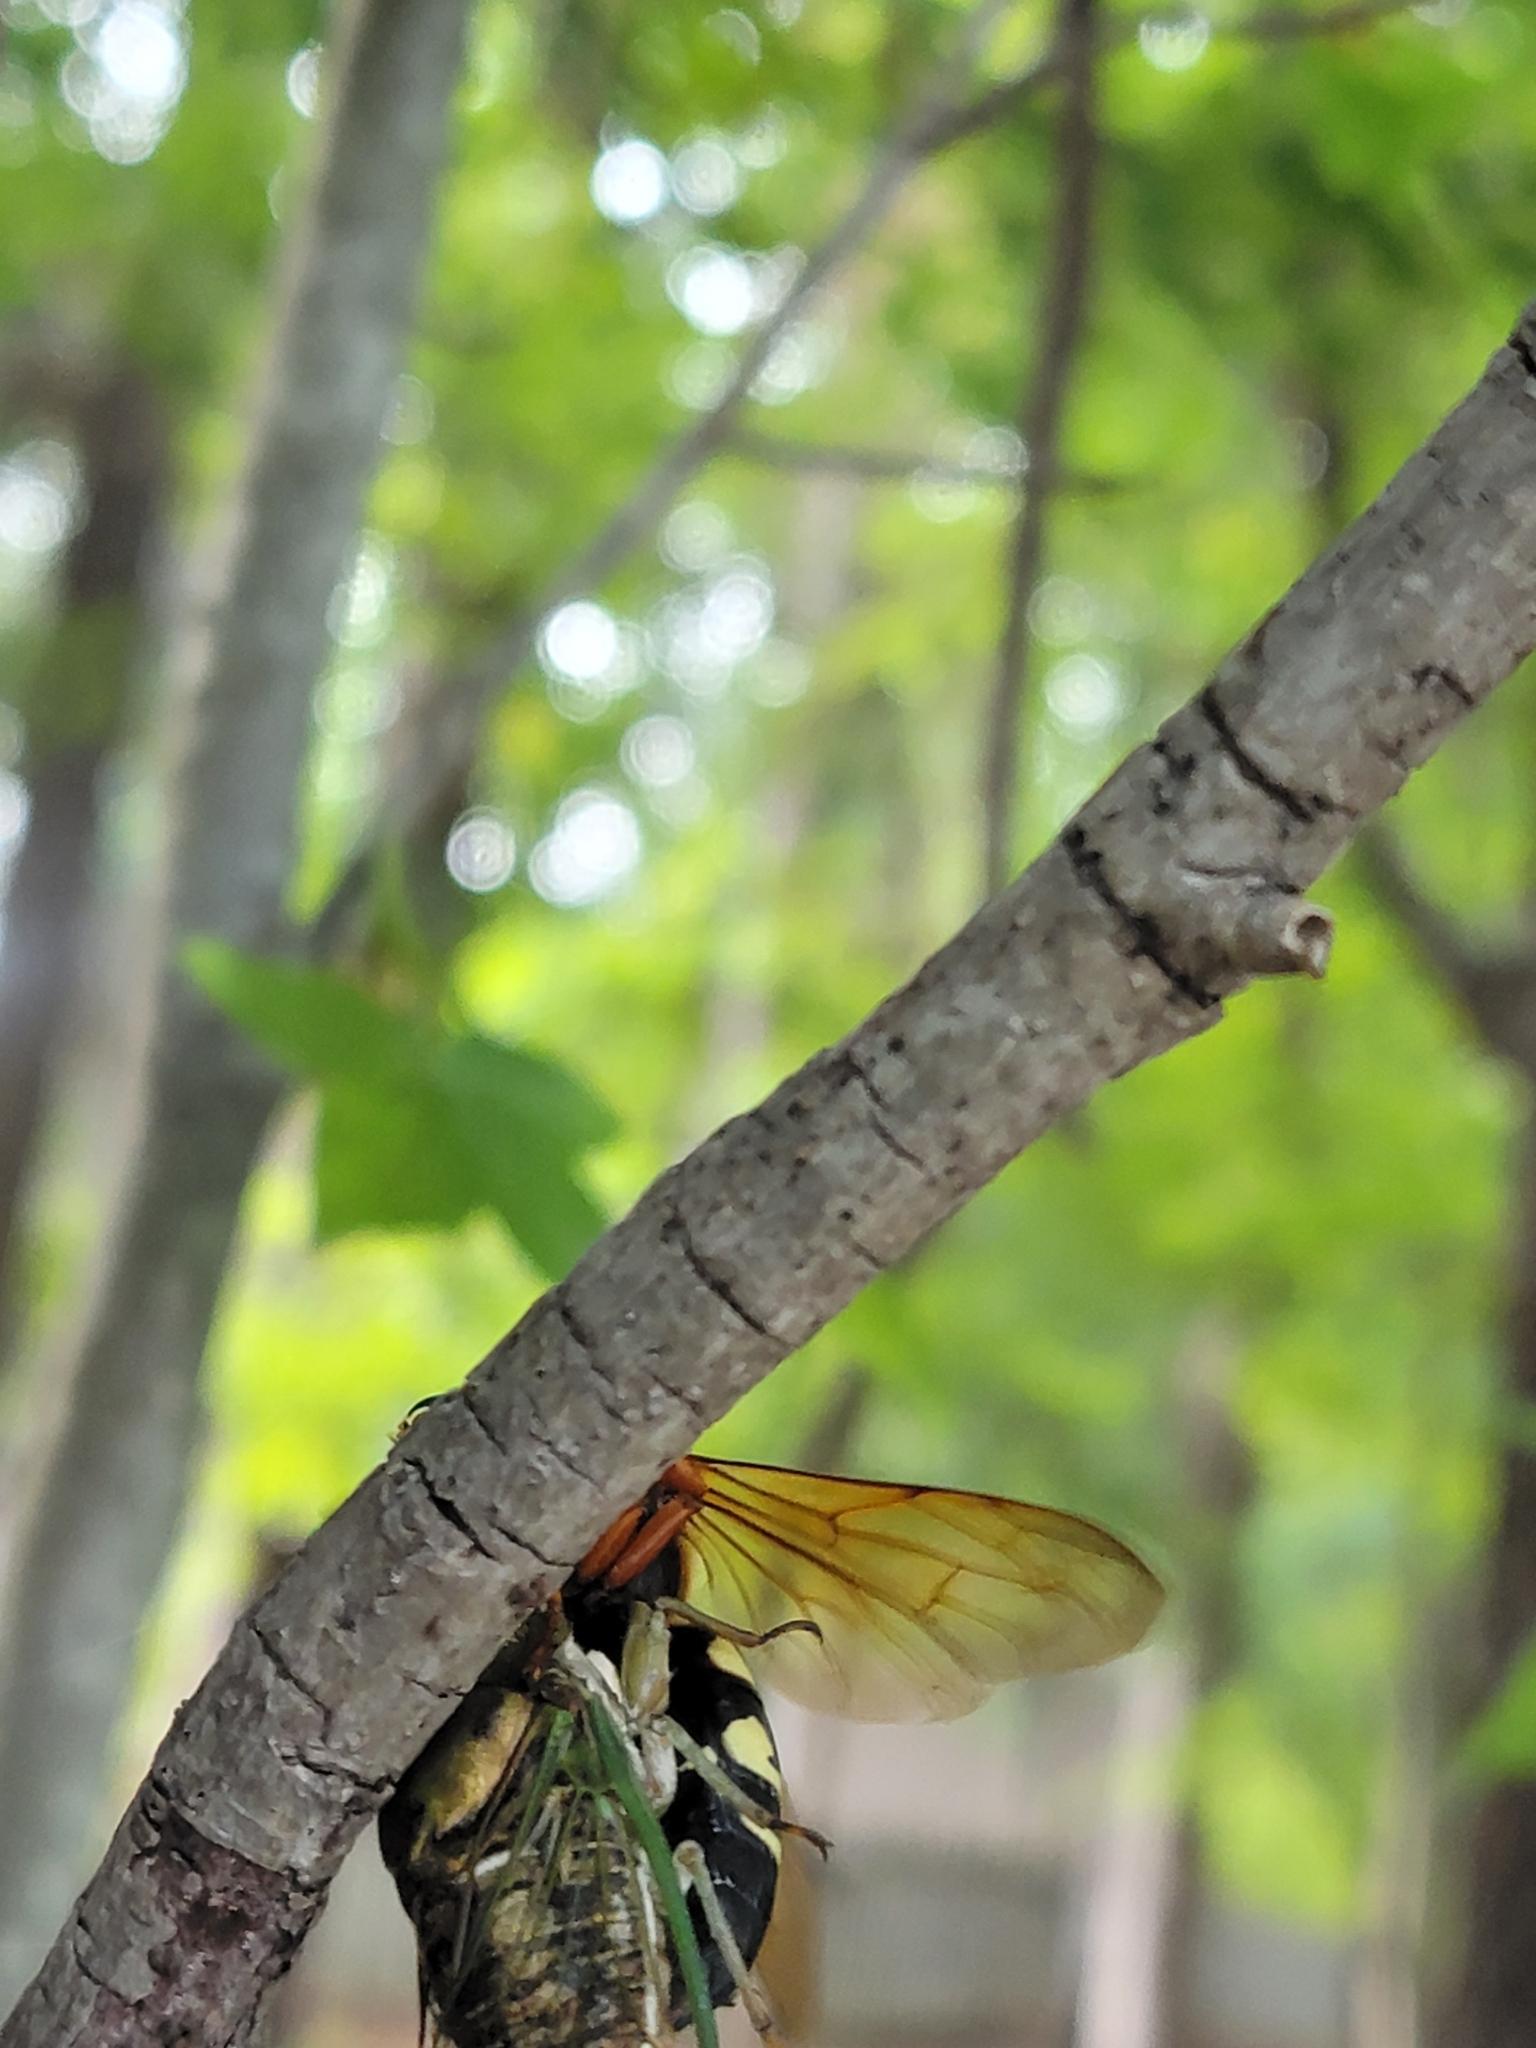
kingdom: Animalia
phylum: Arthropoda
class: Insecta
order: Hymenoptera
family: Crabronidae
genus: Sphecius
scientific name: Sphecius speciosus
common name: Cicada killer
